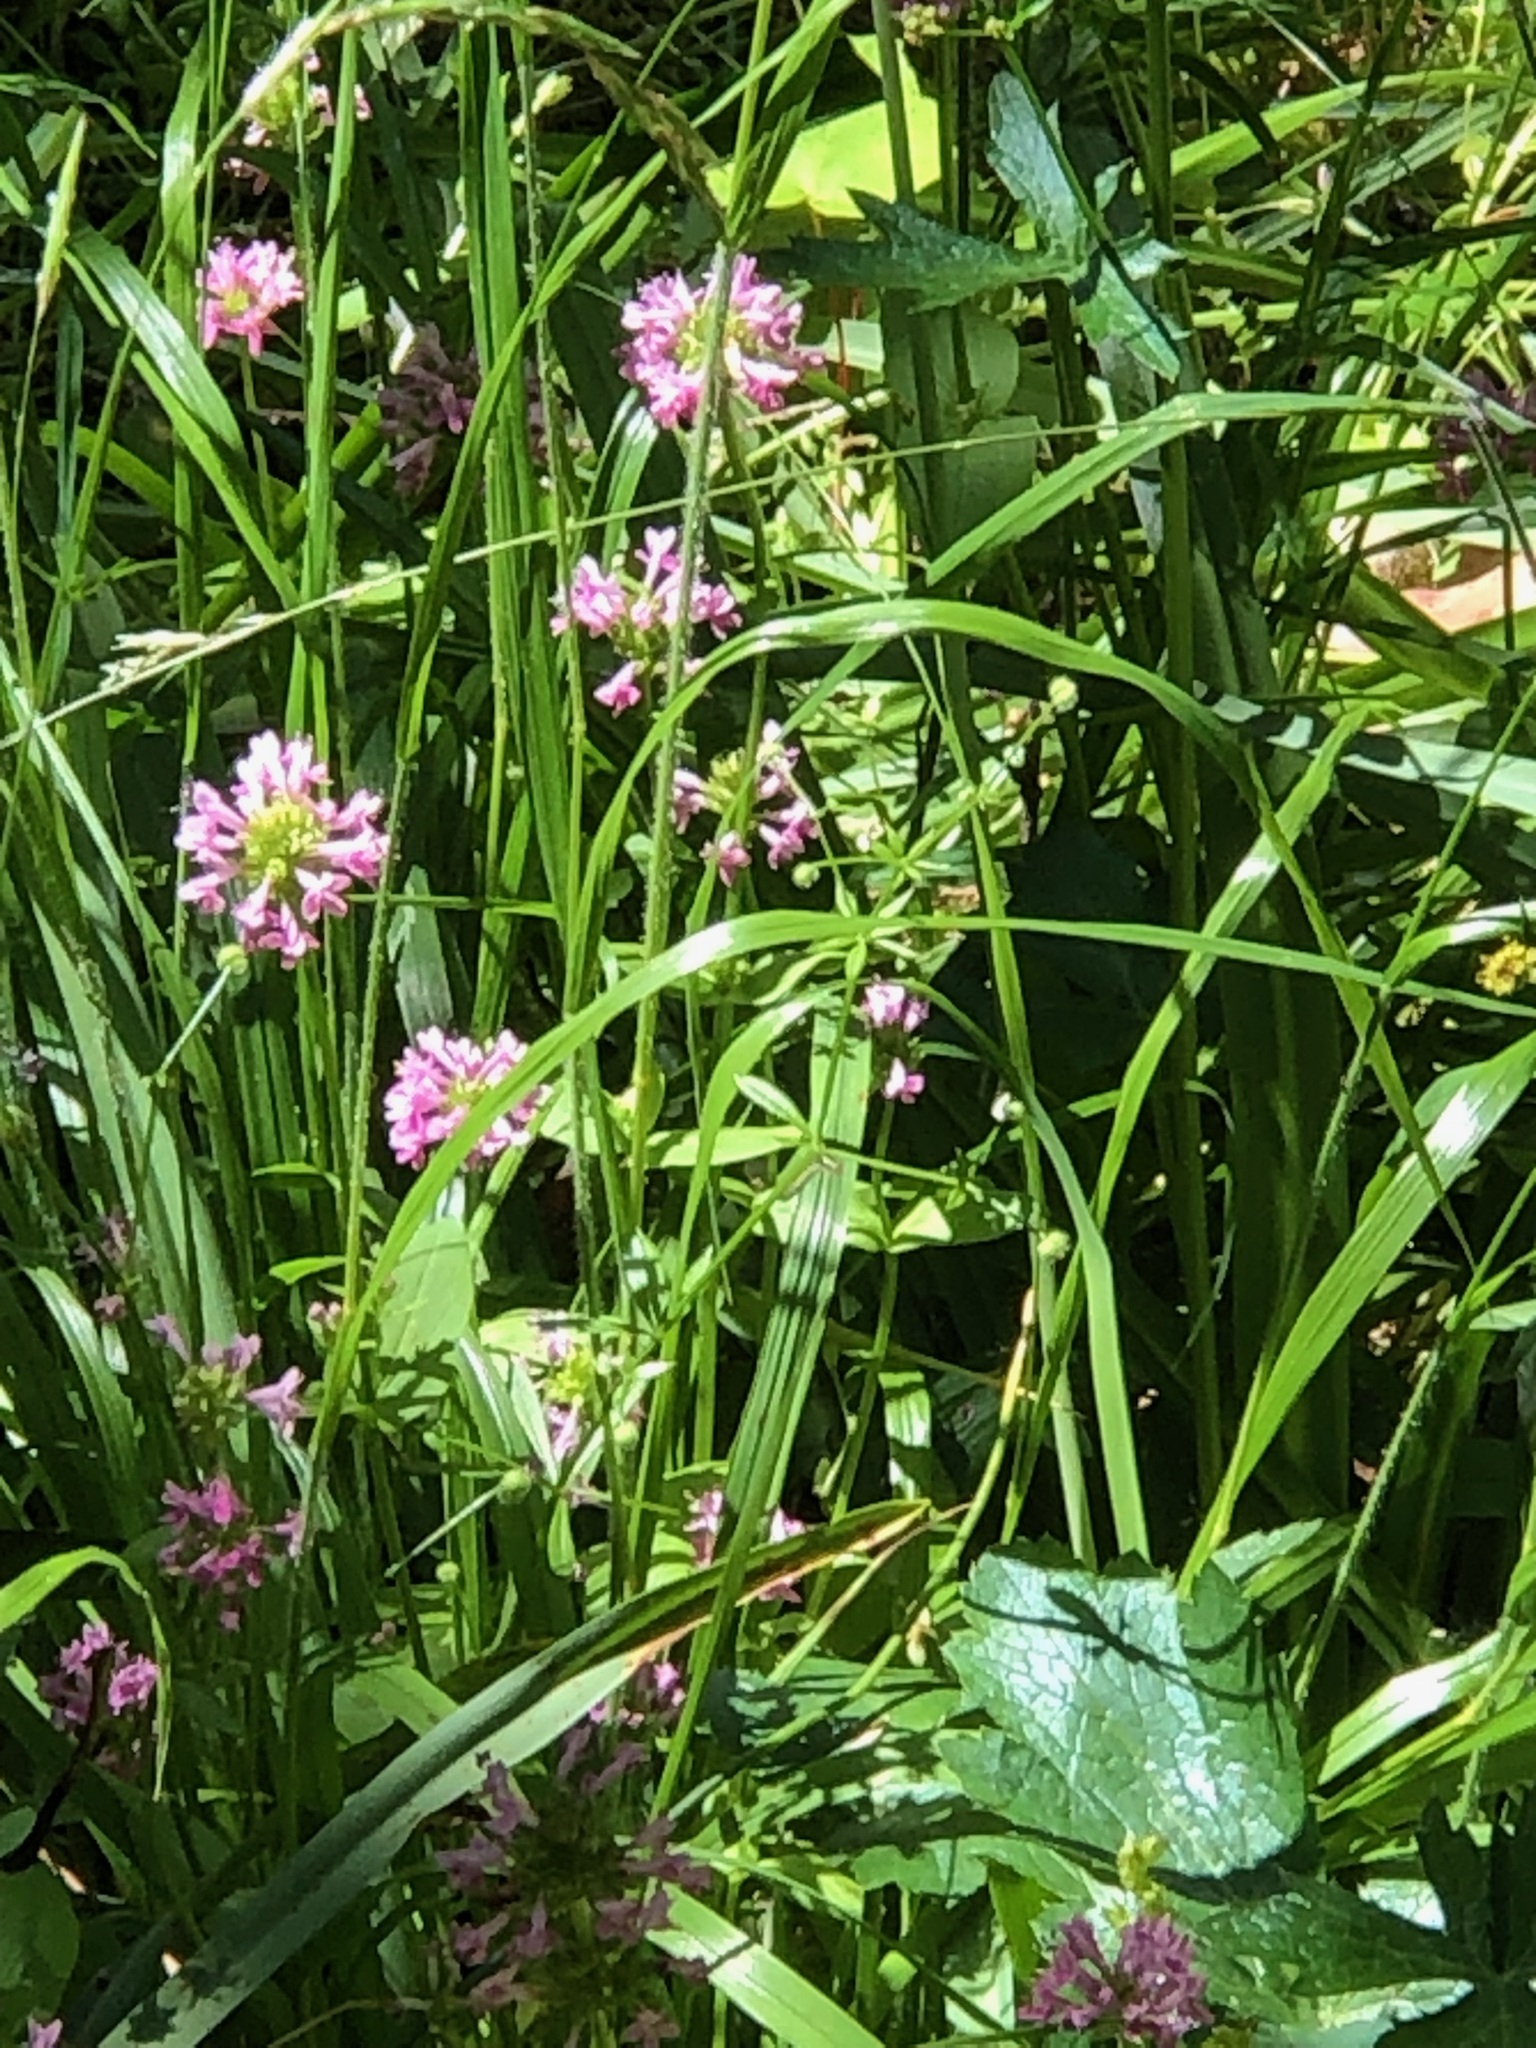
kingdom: Plantae
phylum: Tracheophyta
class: Magnoliopsida
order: Dipsacales
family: Caprifoliaceae
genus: Plectritis
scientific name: Plectritis congesta
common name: Pink plectritis
